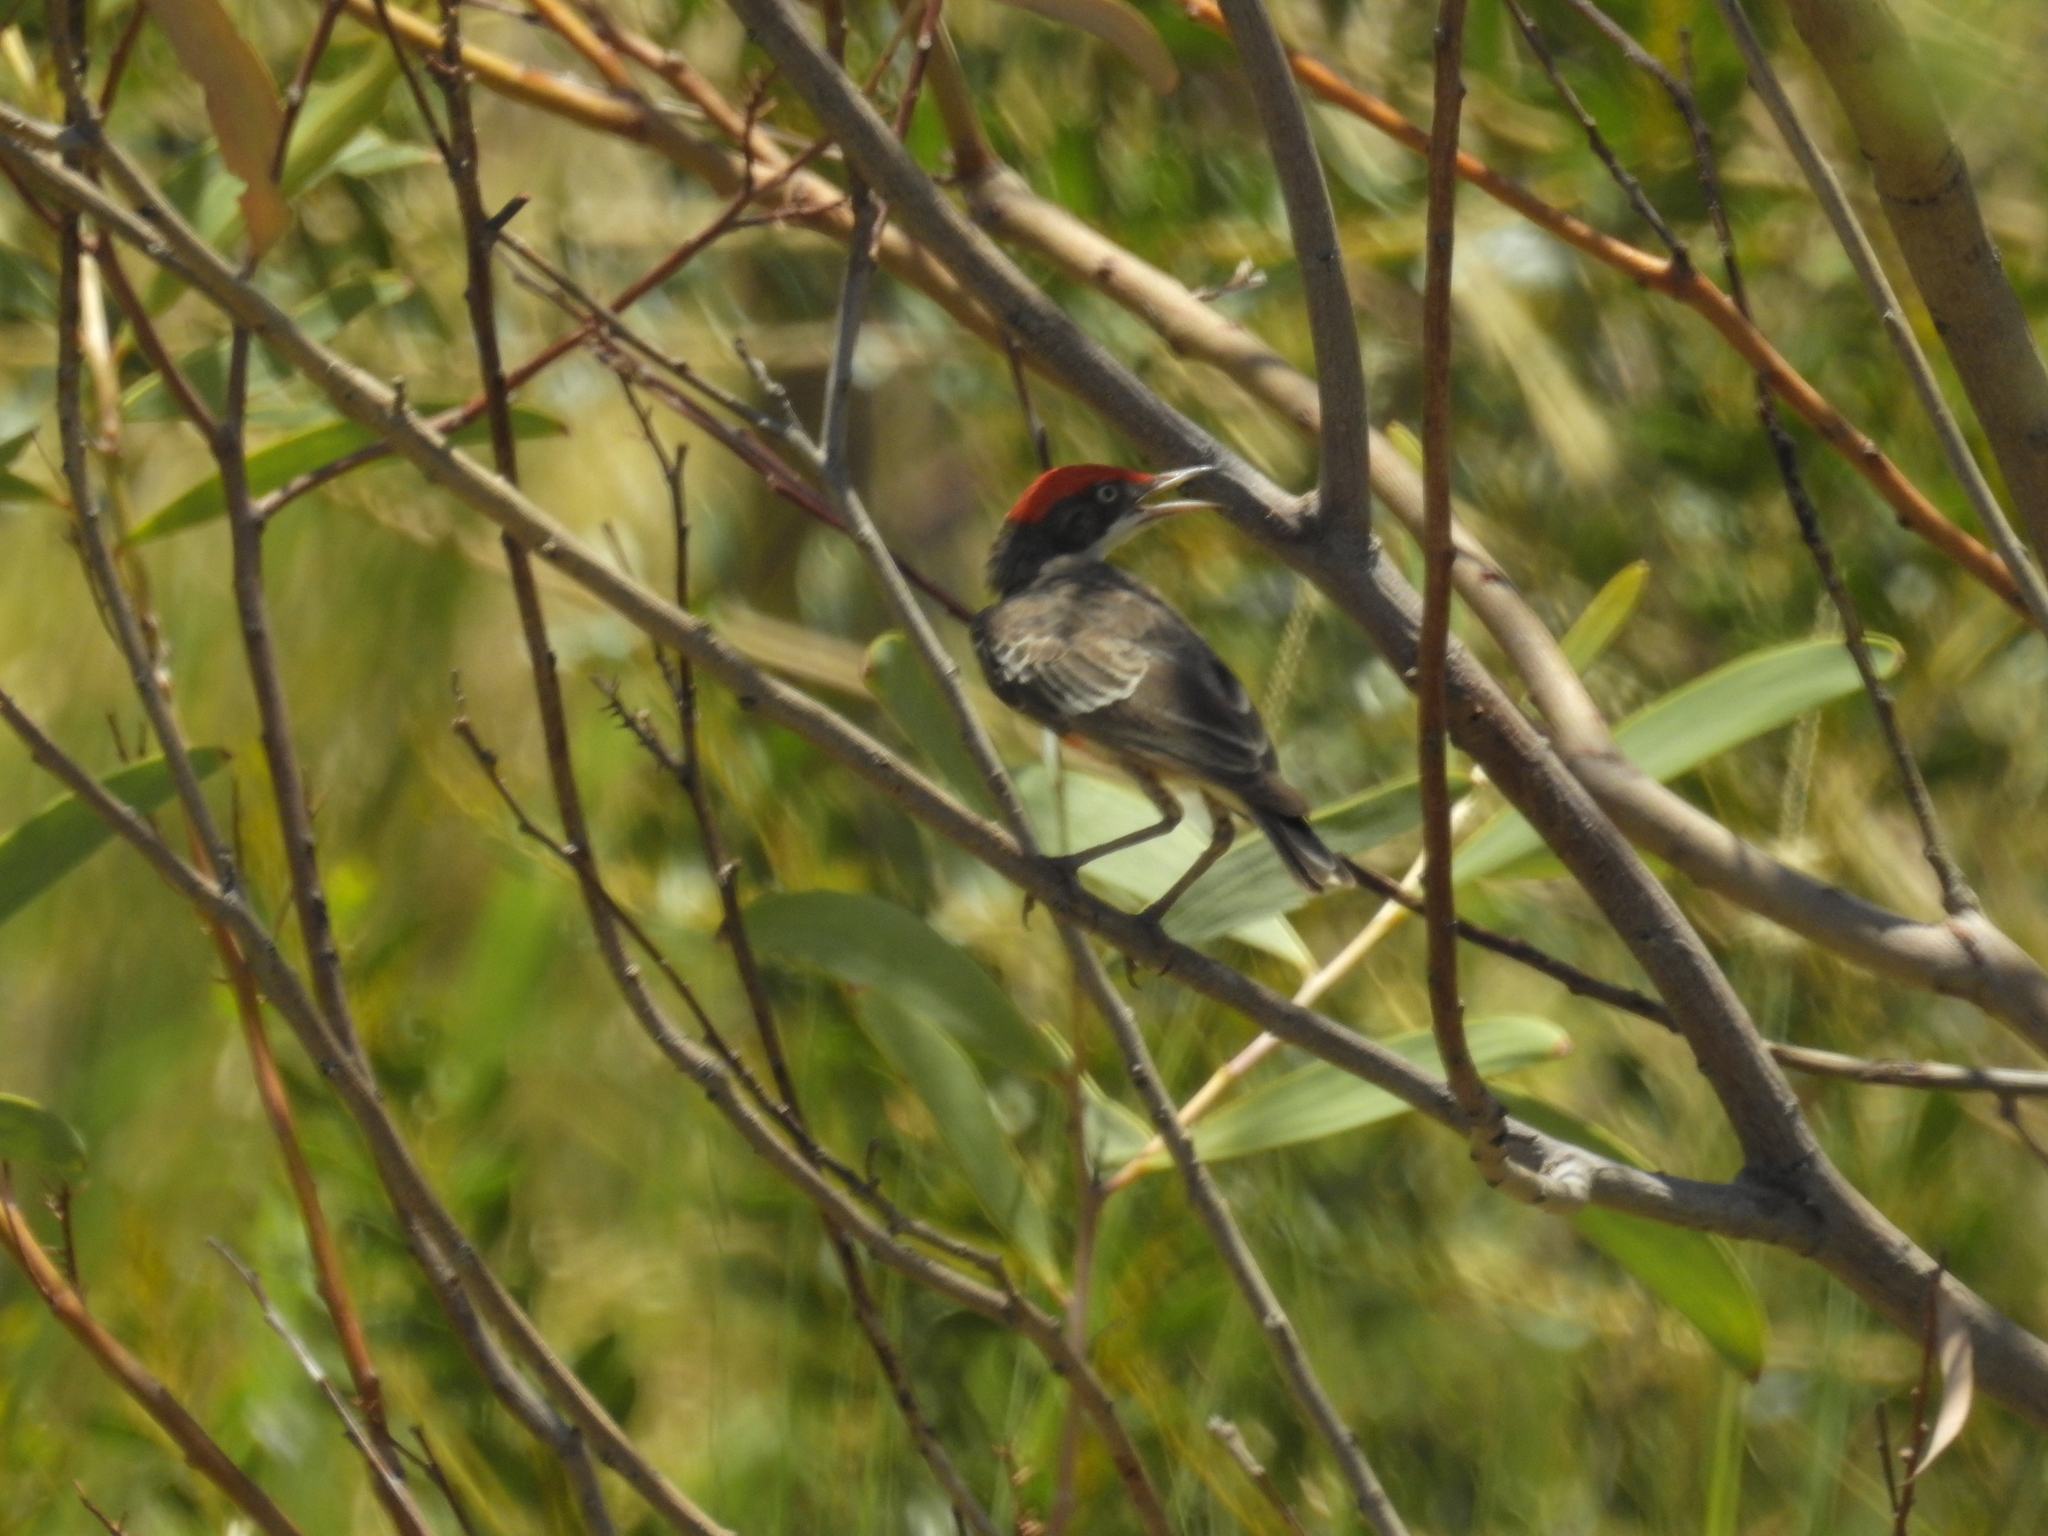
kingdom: Animalia
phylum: Chordata
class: Aves
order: Passeriformes
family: Meliphagidae
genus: Epthianura
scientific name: Epthianura tricolor
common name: Crimson chat
